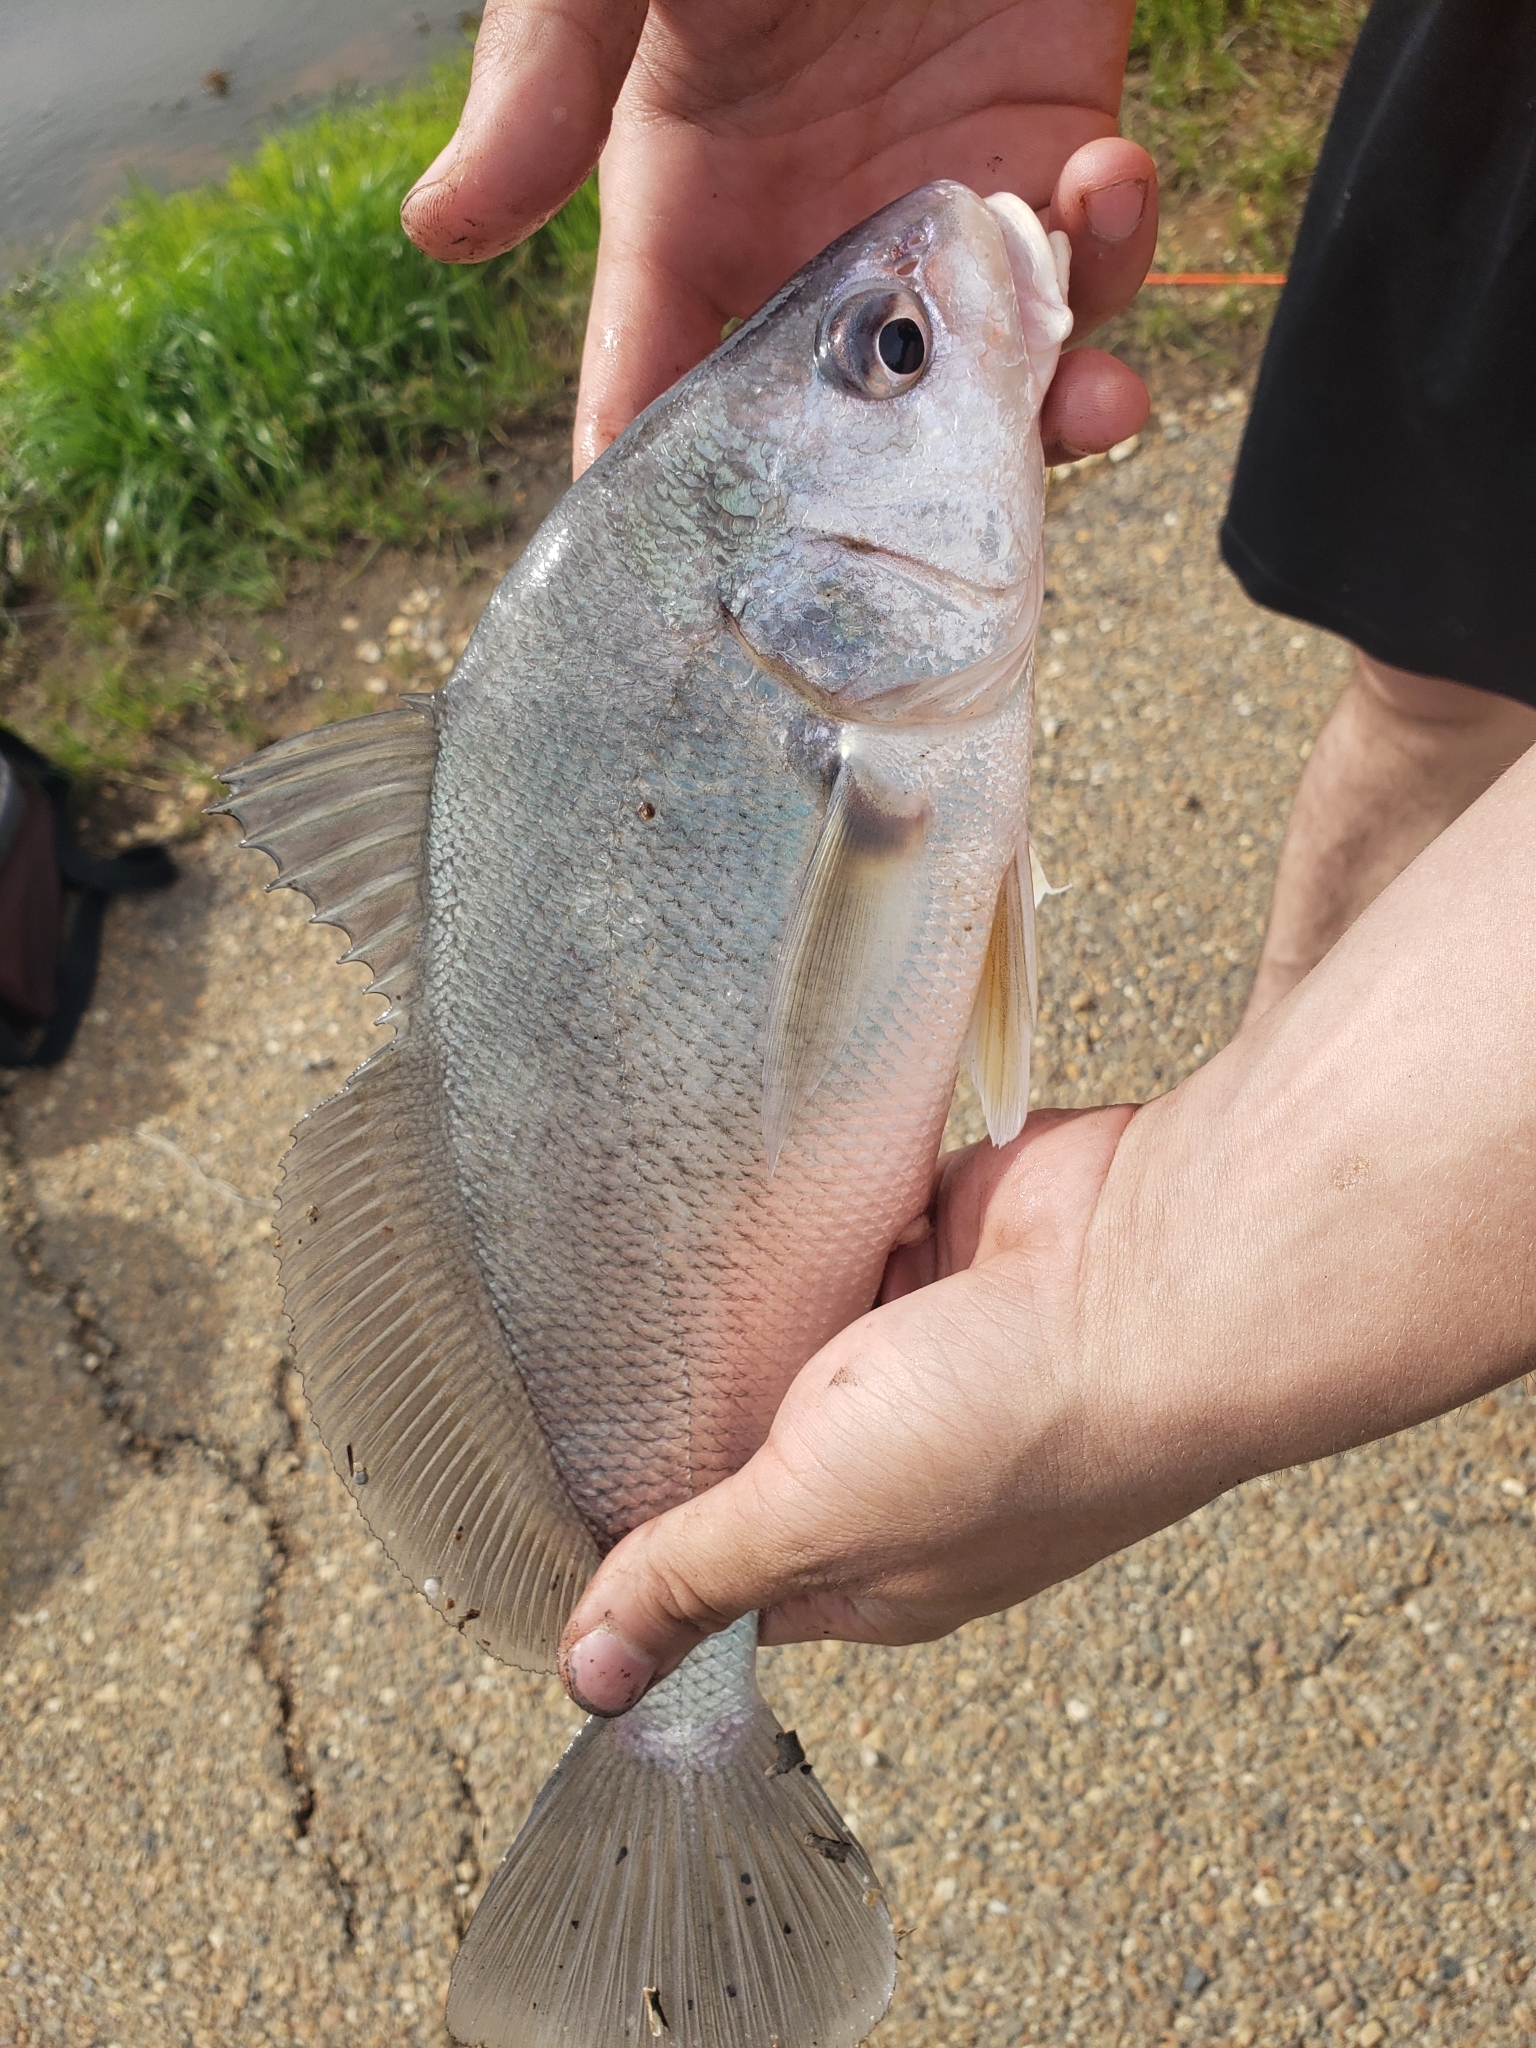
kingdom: Animalia
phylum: Chordata
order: Perciformes
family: Sciaenidae
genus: Aplodinotus
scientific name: Aplodinotus grunniens
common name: Freshwater drum
